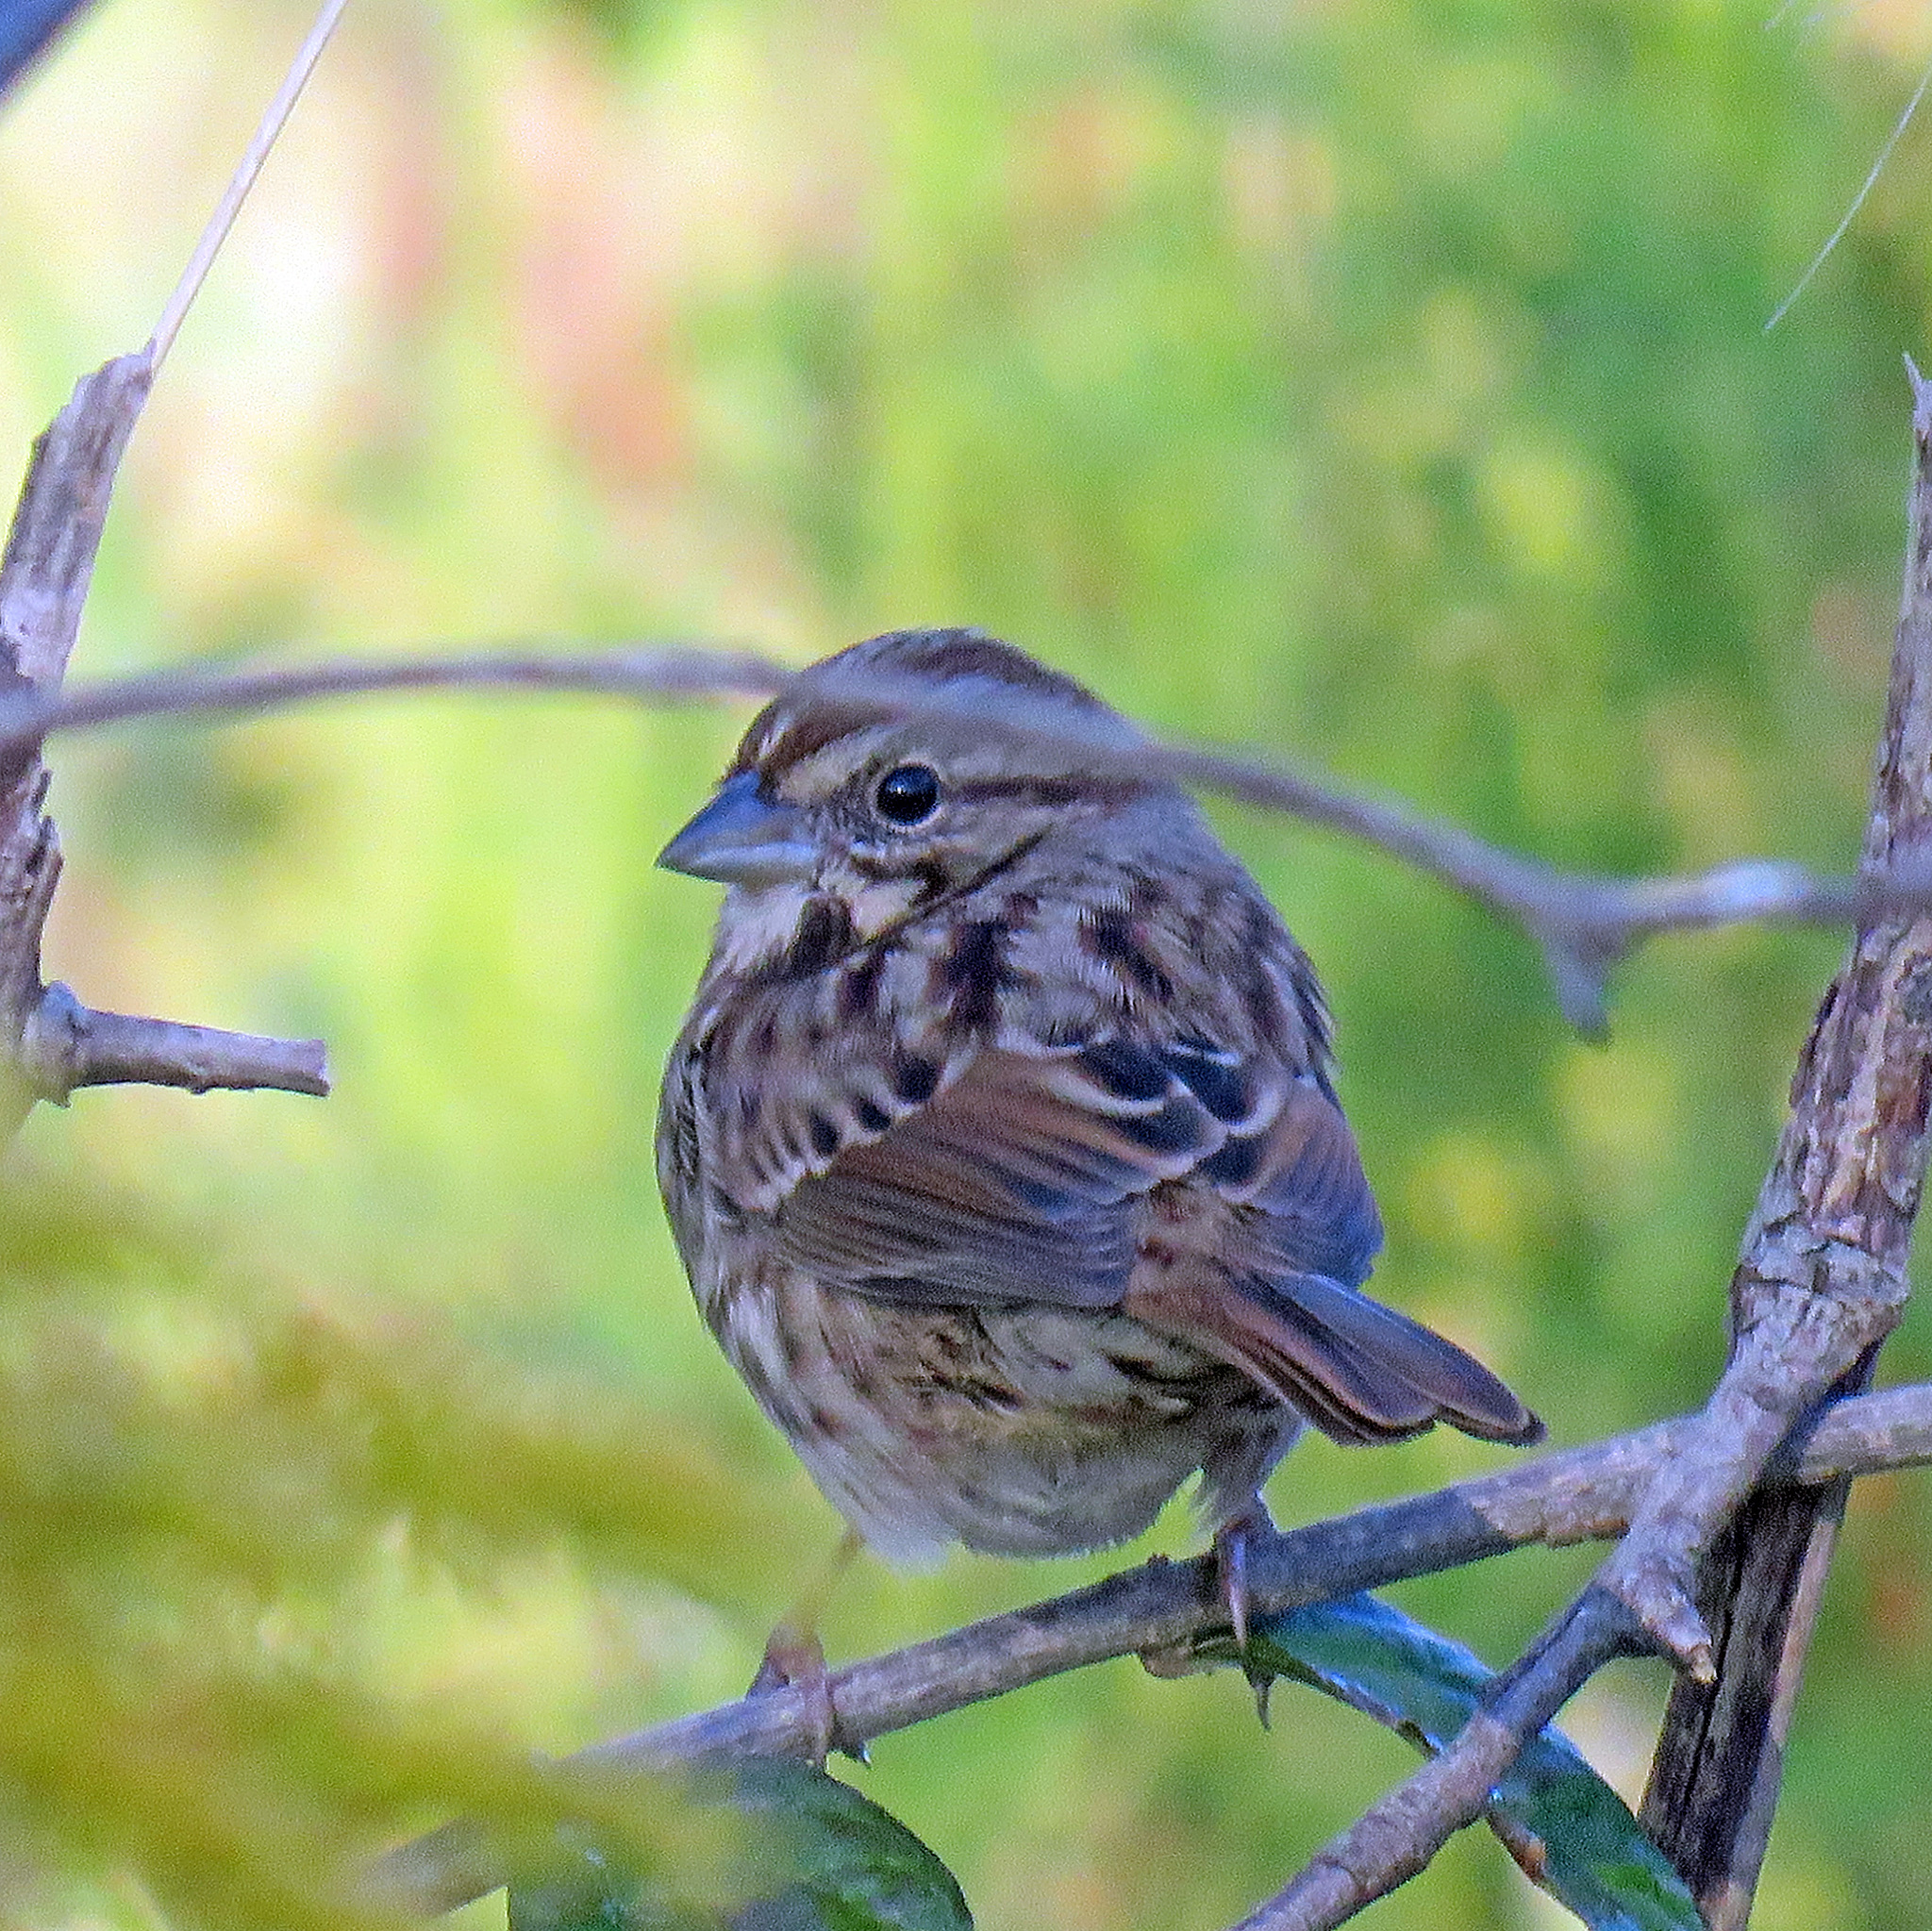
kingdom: Animalia
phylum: Chordata
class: Aves
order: Passeriformes
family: Passerellidae
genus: Melospiza
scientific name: Melospiza melodia
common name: Song sparrow
